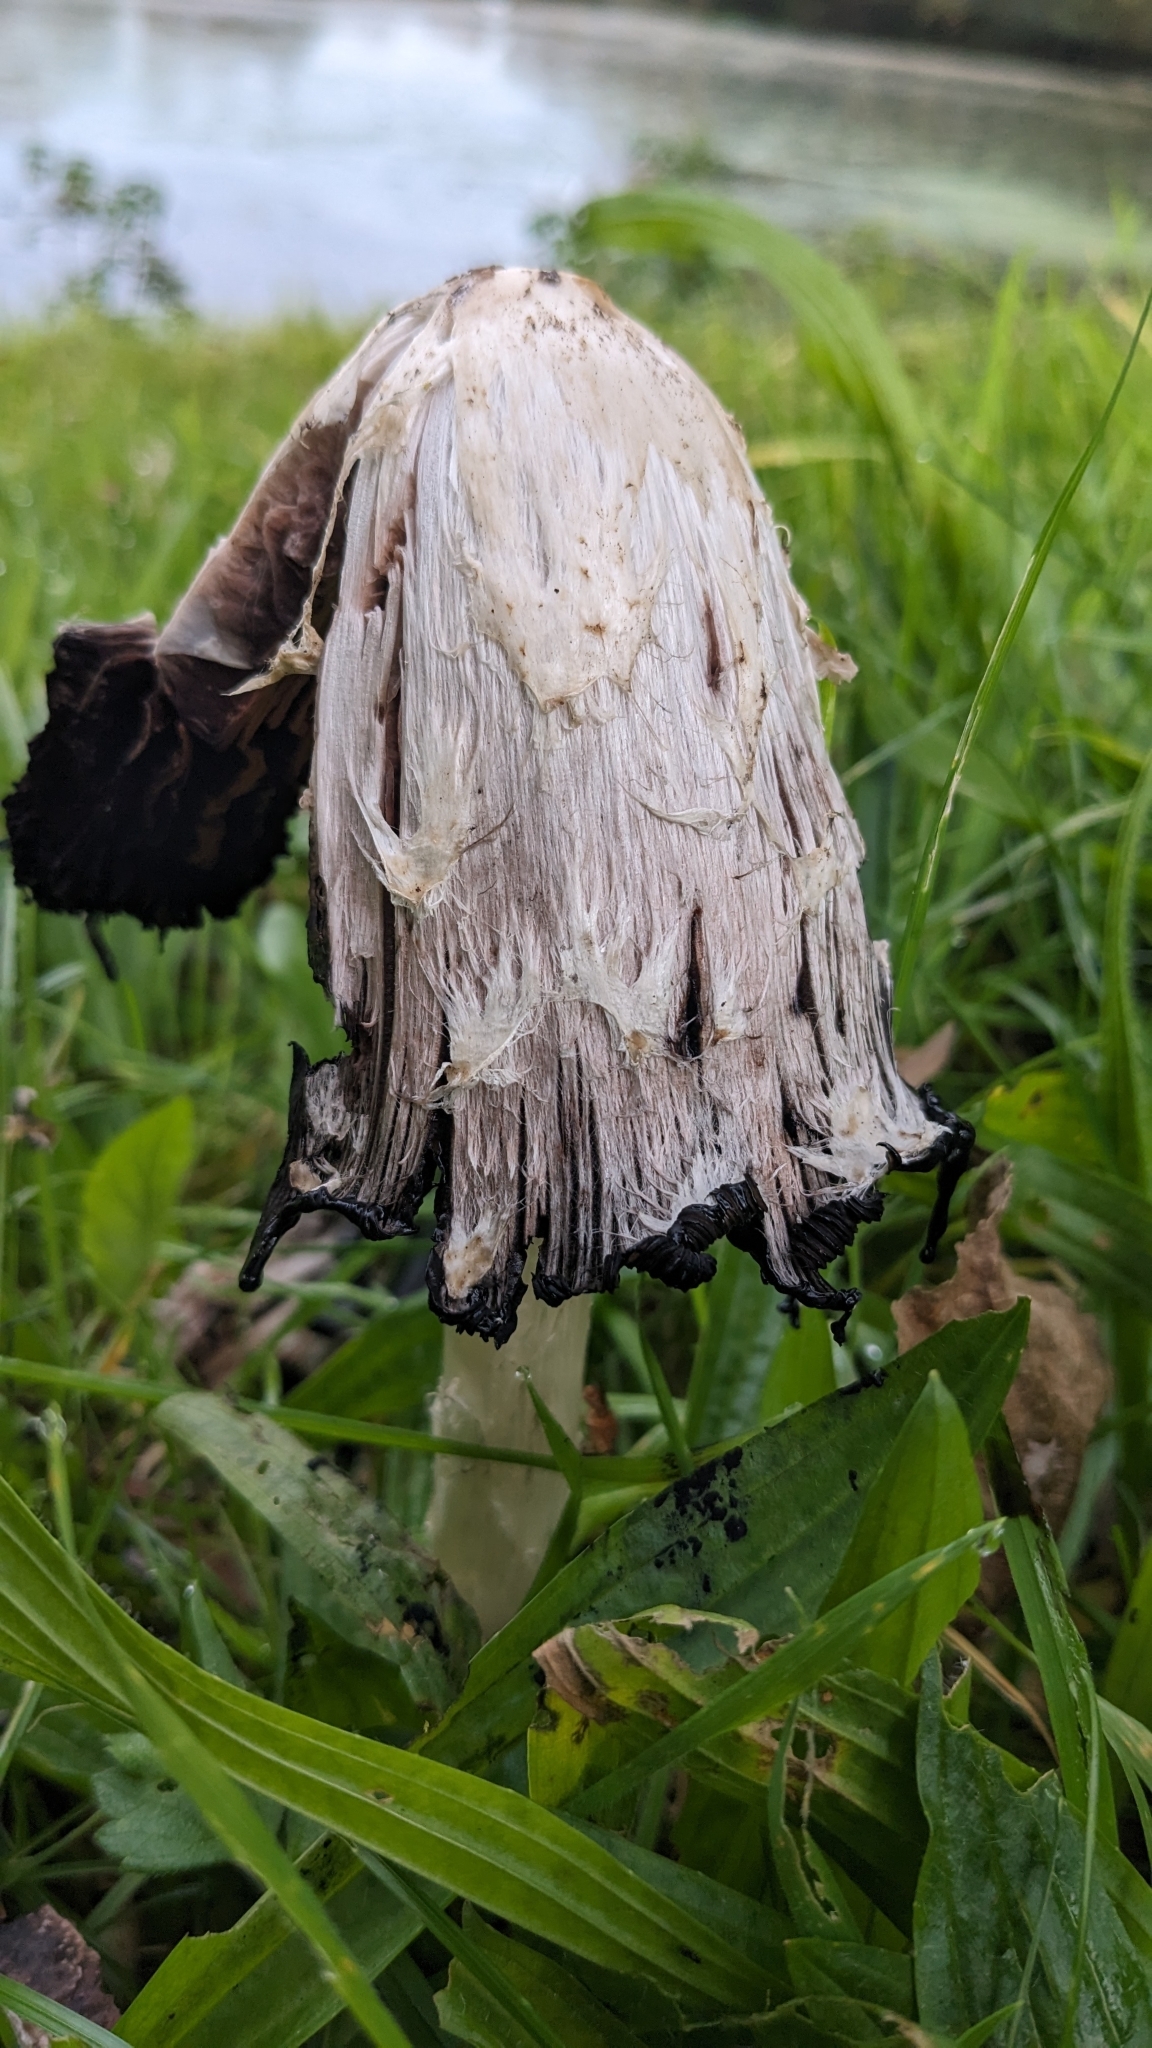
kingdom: Fungi
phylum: Basidiomycota
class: Agaricomycetes
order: Agaricales
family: Agaricaceae
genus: Coprinus
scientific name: Coprinus comatus
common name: Lawyer's wig
